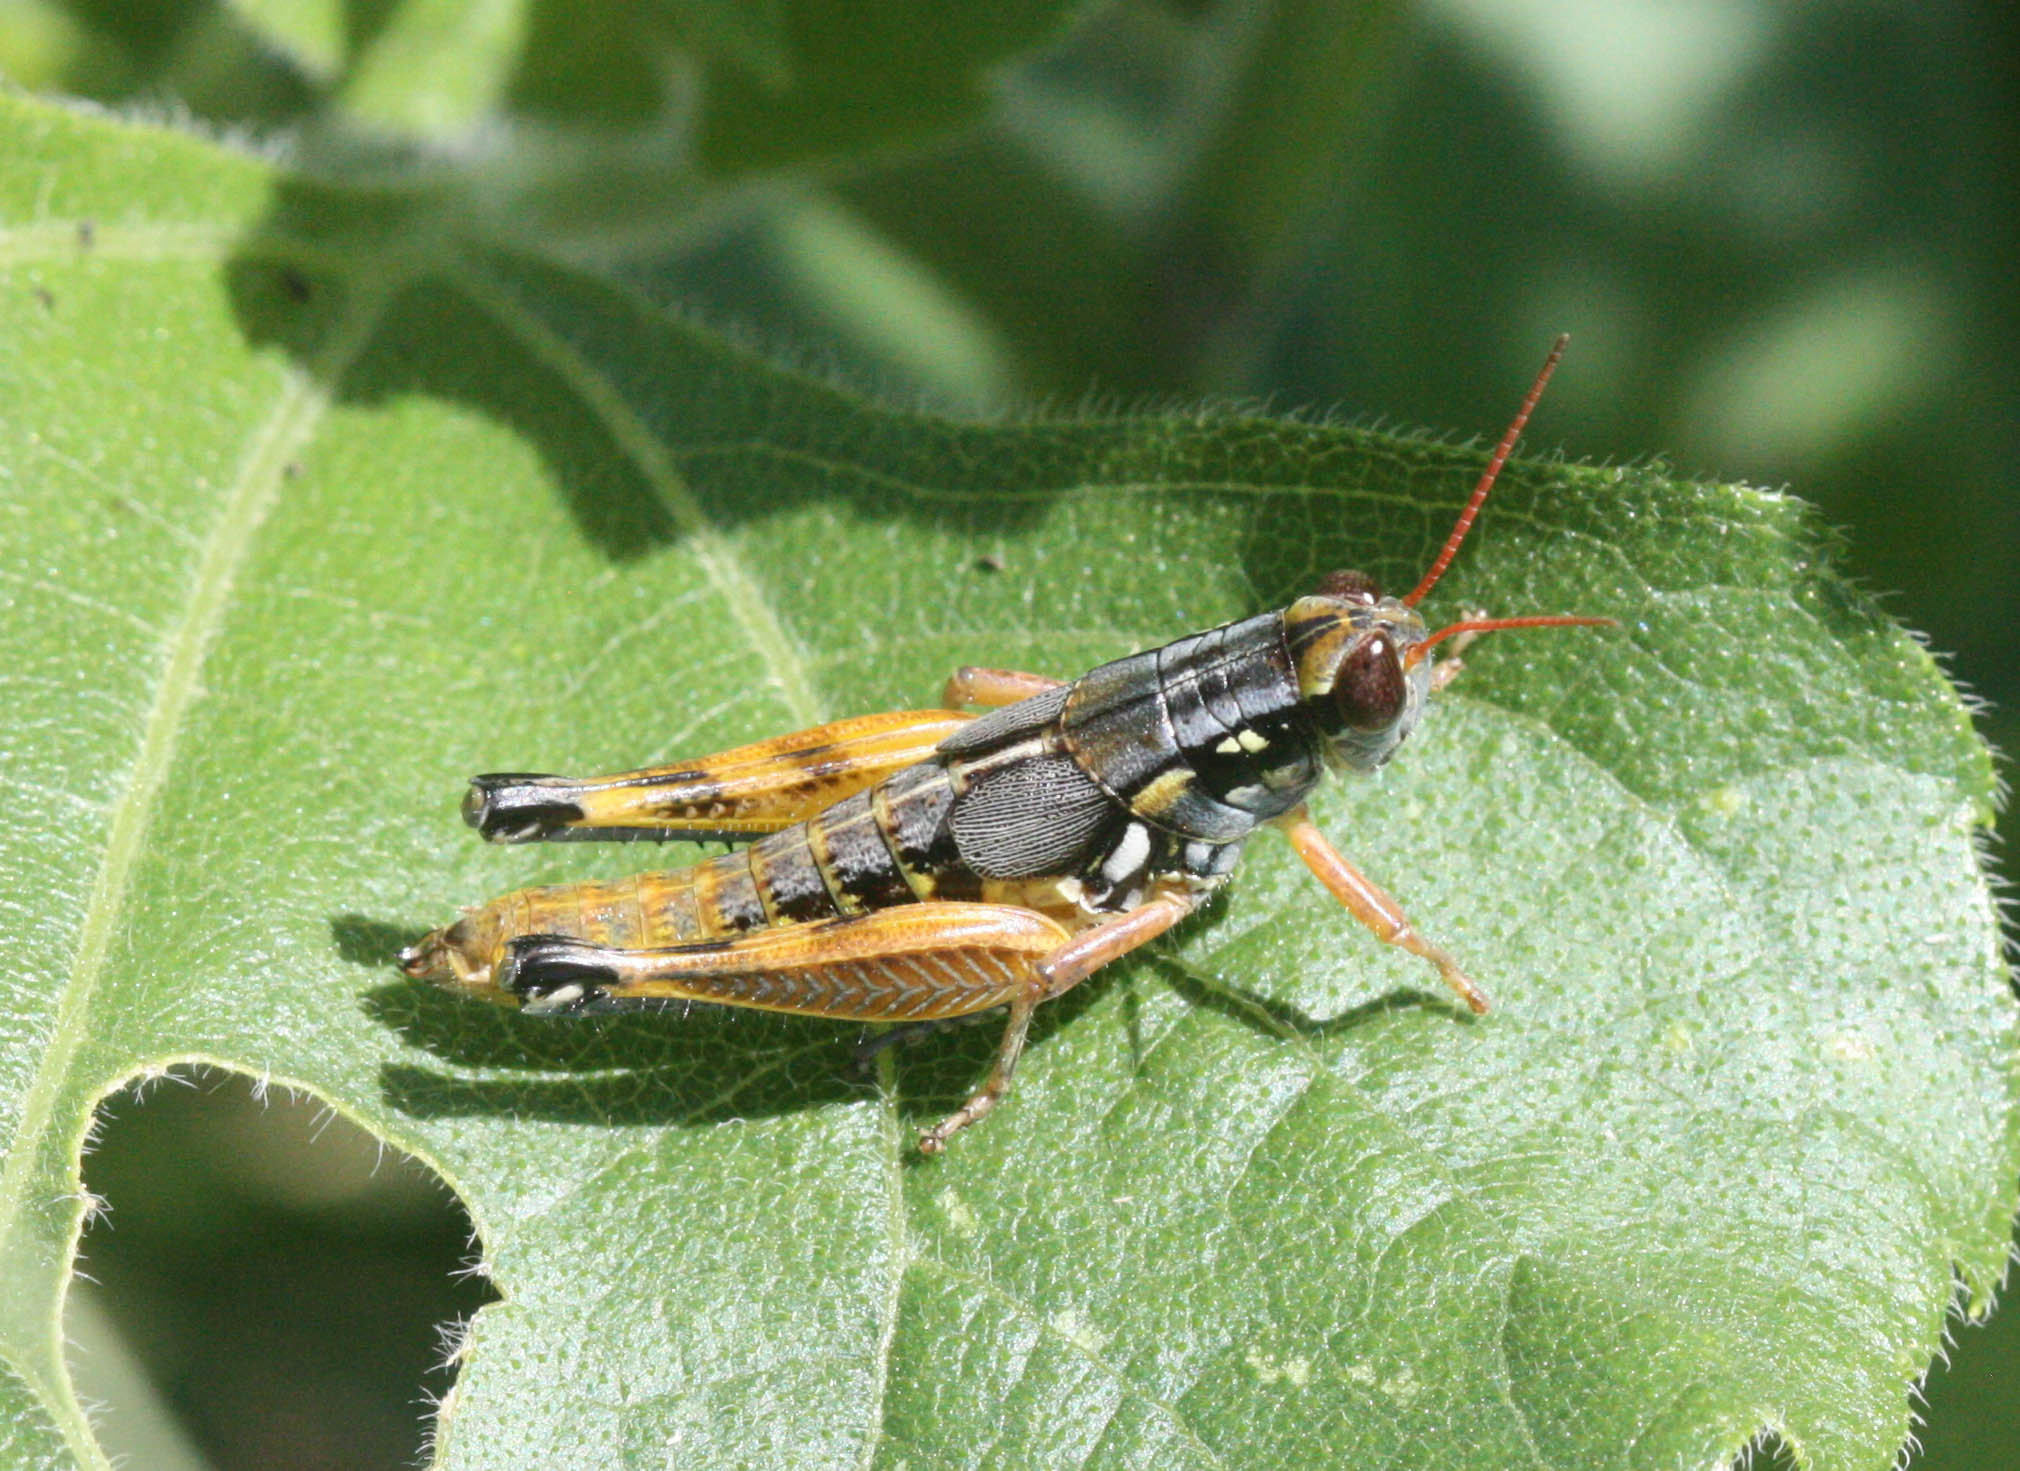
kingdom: Animalia
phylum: Arthropoda
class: Insecta
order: Orthoptera
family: Acrididae
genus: Melanoplus
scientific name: Melanoplus aridus
